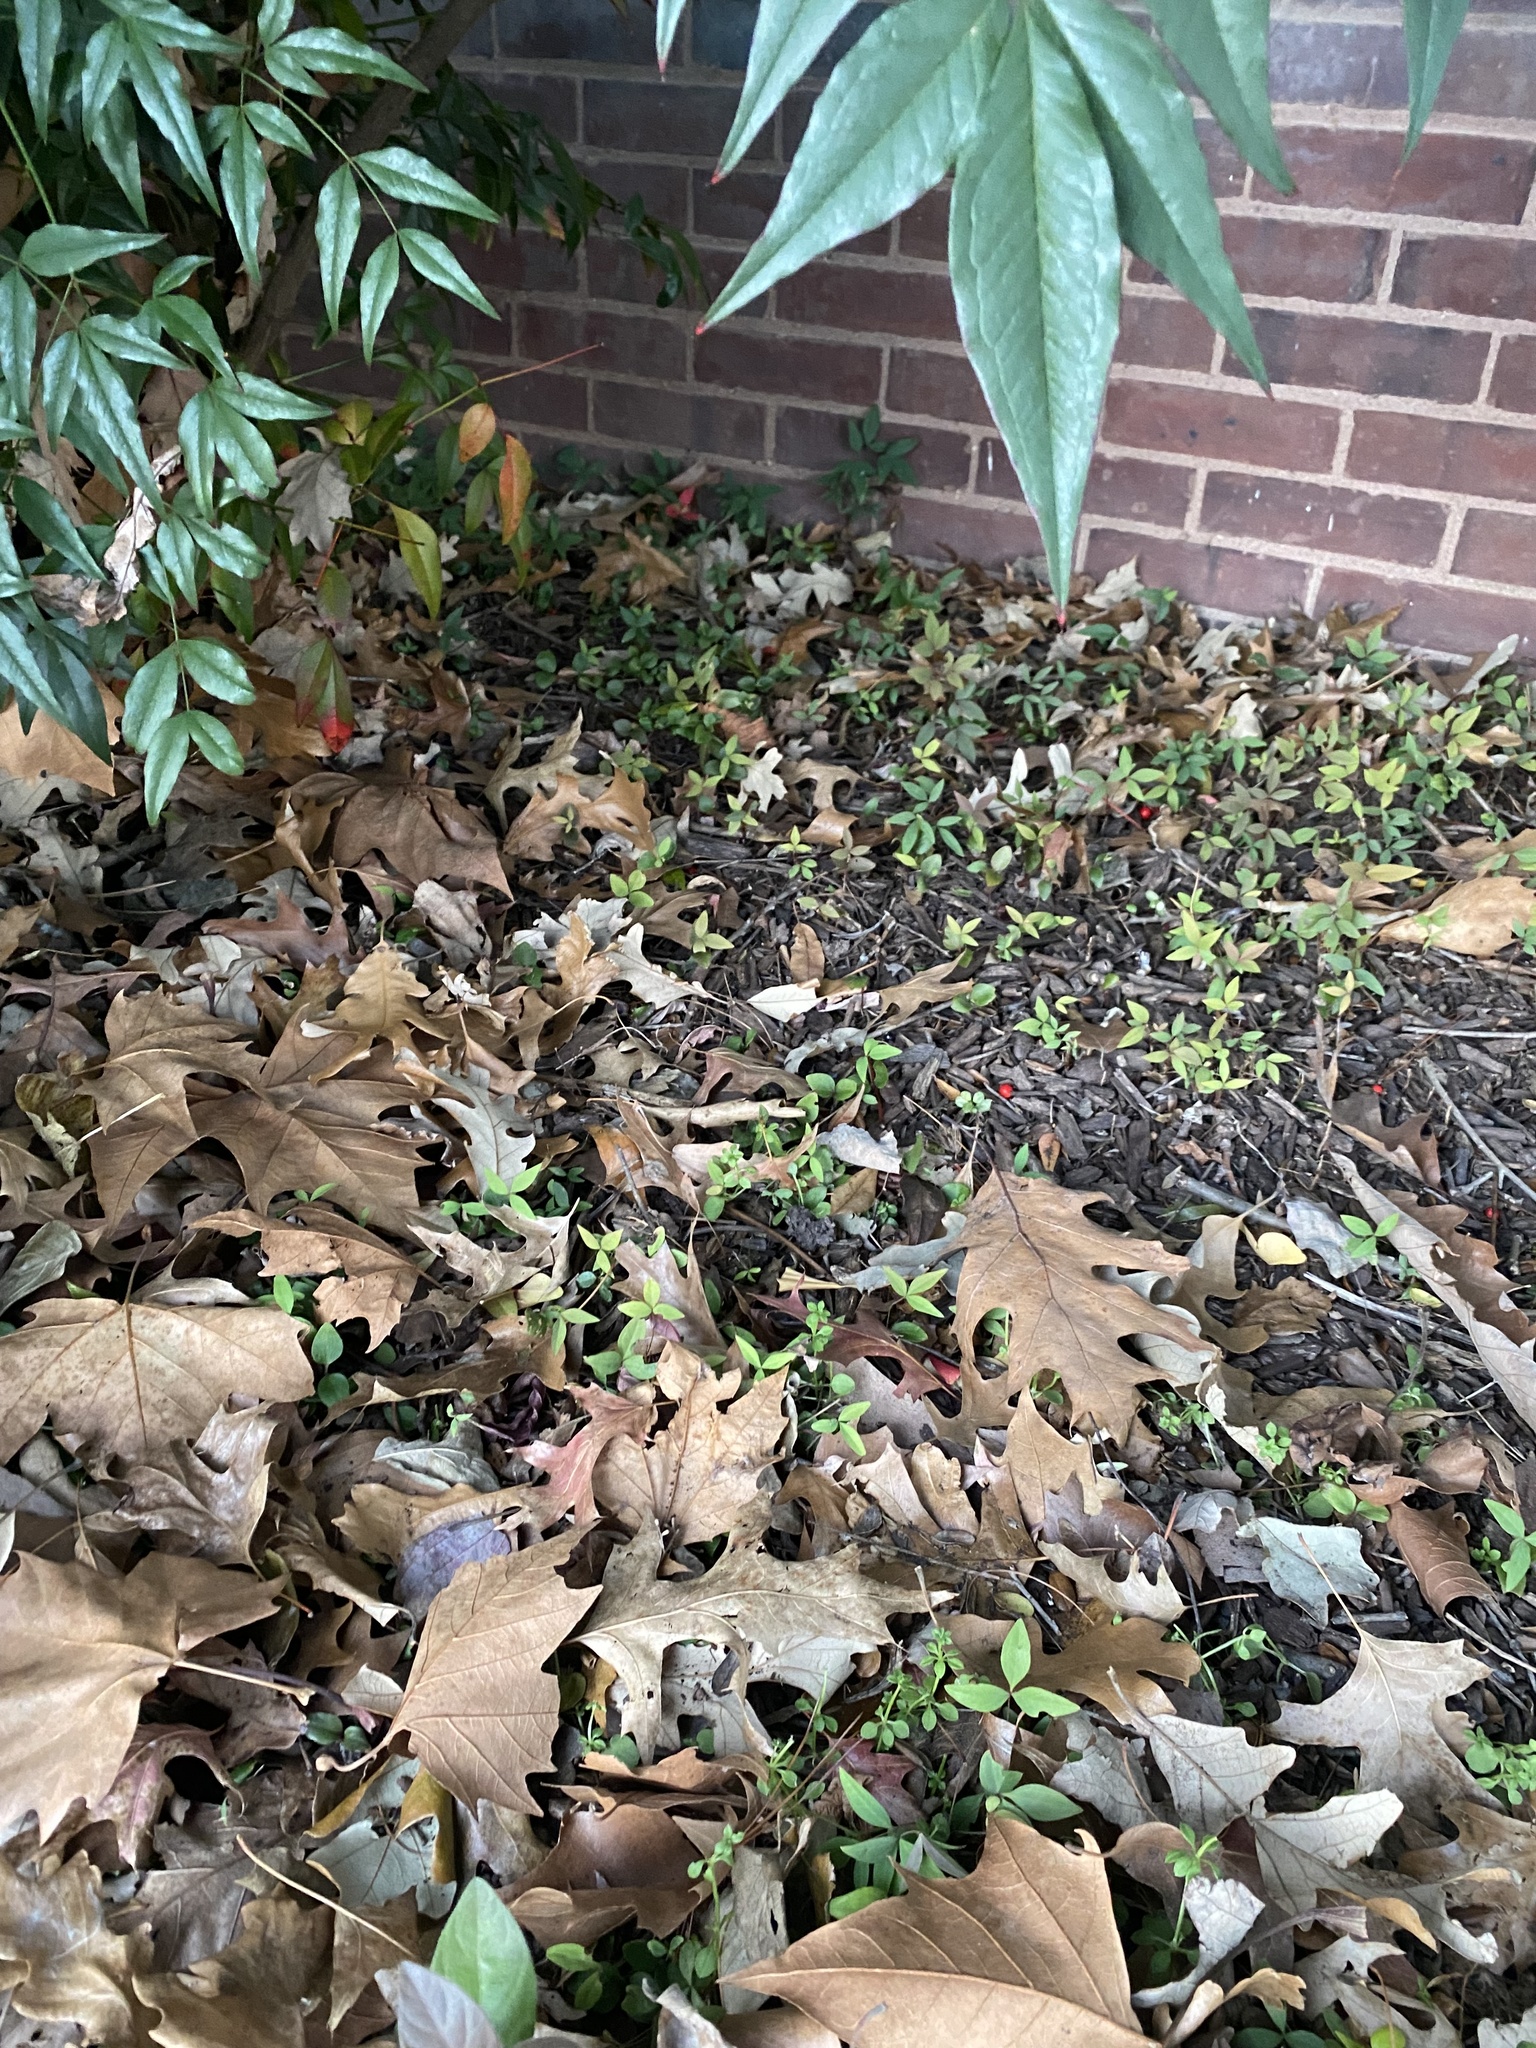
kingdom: Plantae
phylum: Tracheophyta
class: Magnoliopsida
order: Ranunculales
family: Berberidaceae
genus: Nandina
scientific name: Nandina domestica
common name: Sacred bamboo
